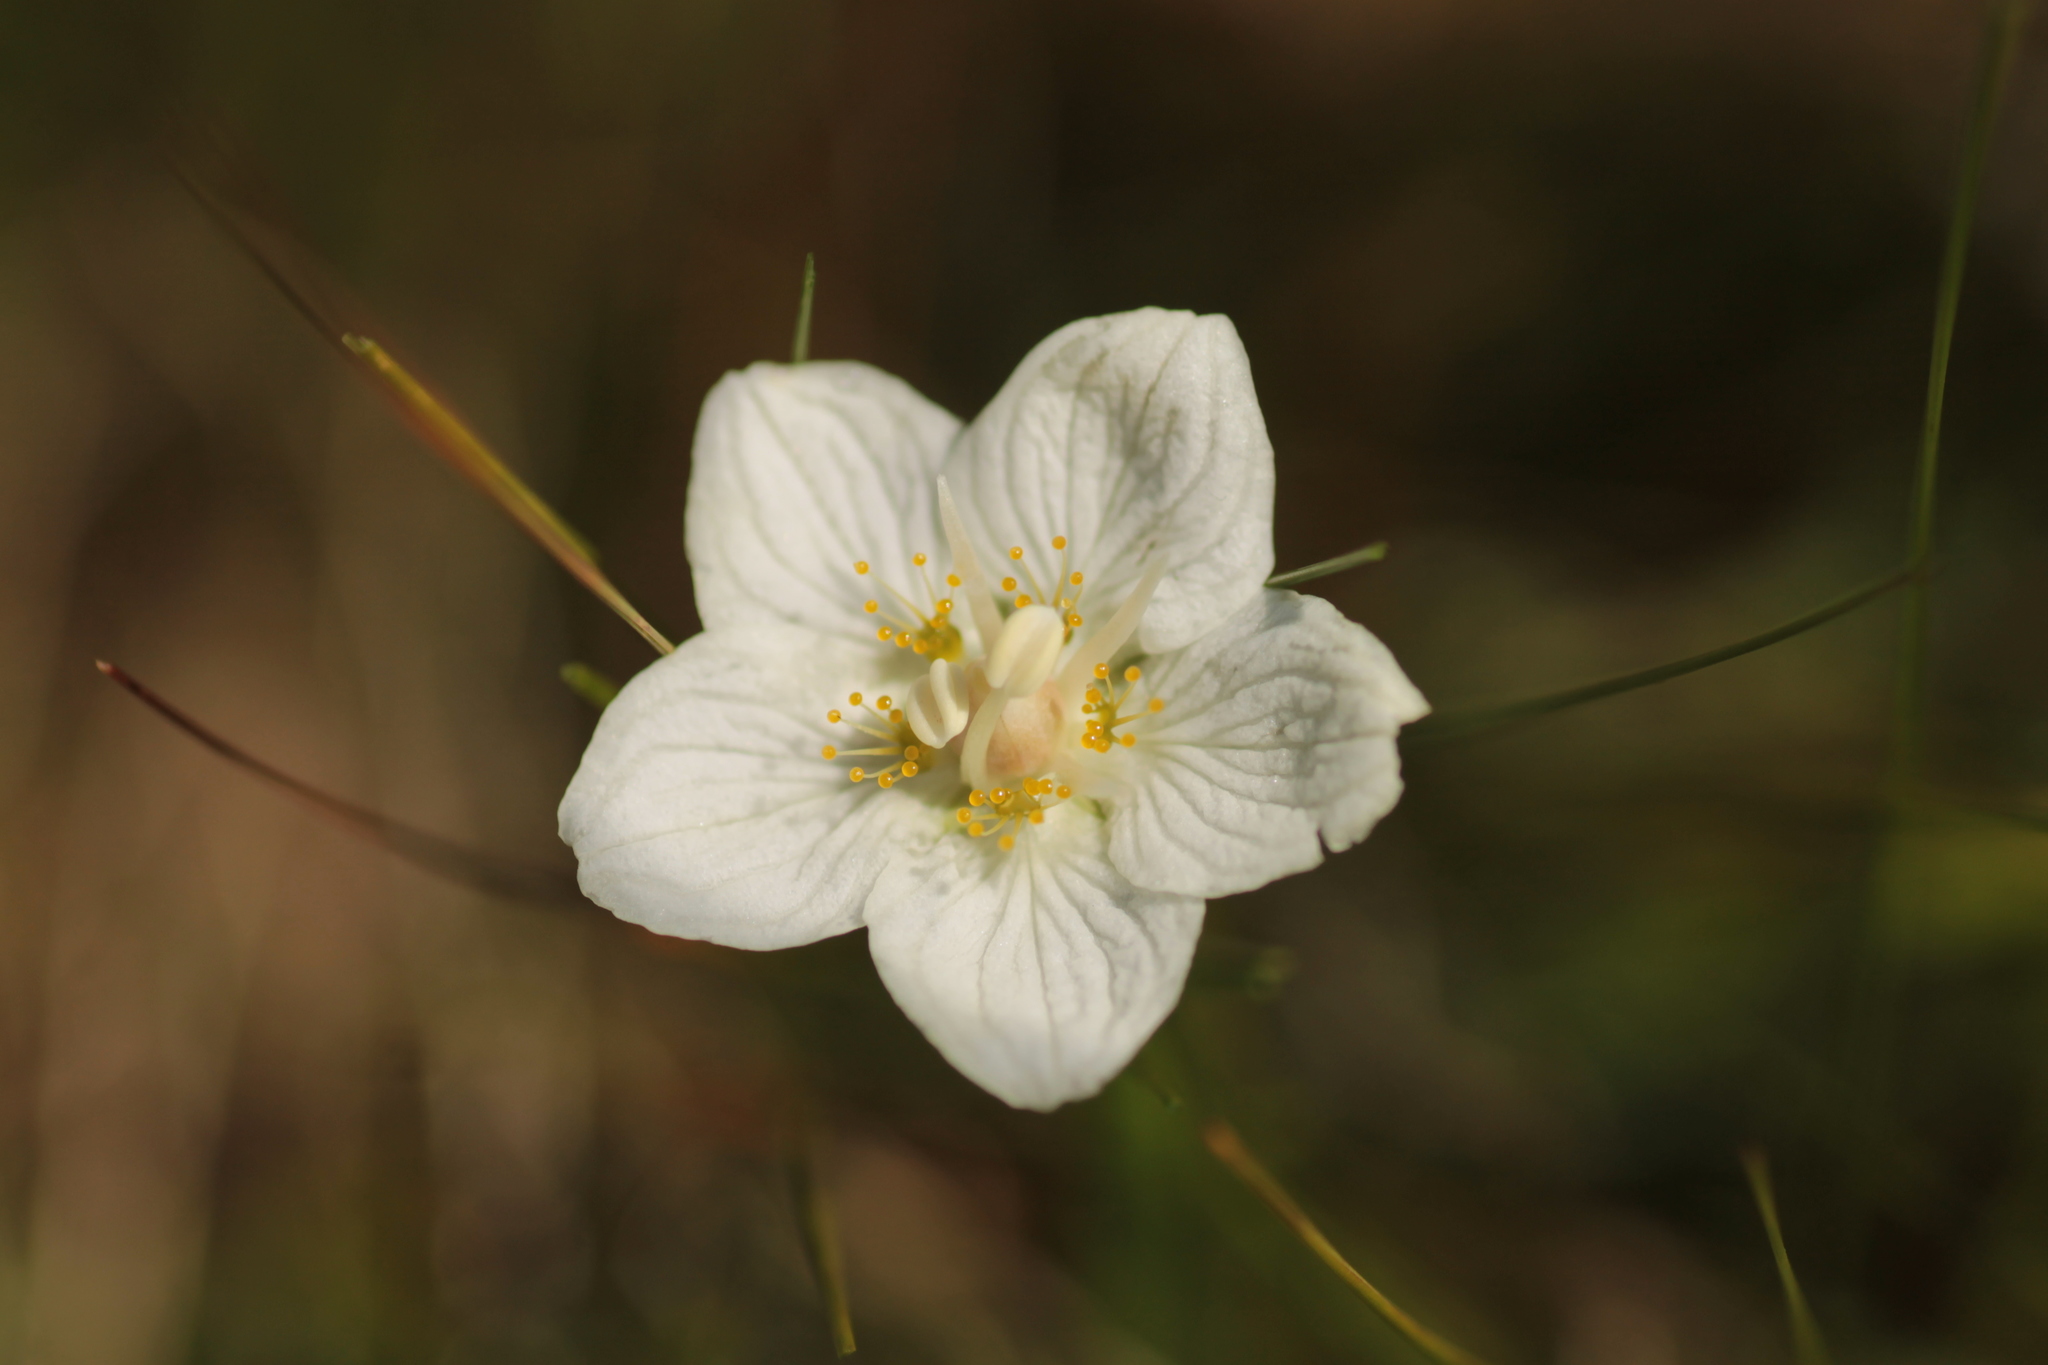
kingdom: Plantae
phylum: Tracheophyta
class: Magnoliopsida
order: Celastrales
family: Parnassiaceae
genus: Parnassia
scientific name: Parnassia palustris
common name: Grass-of-parnassus
